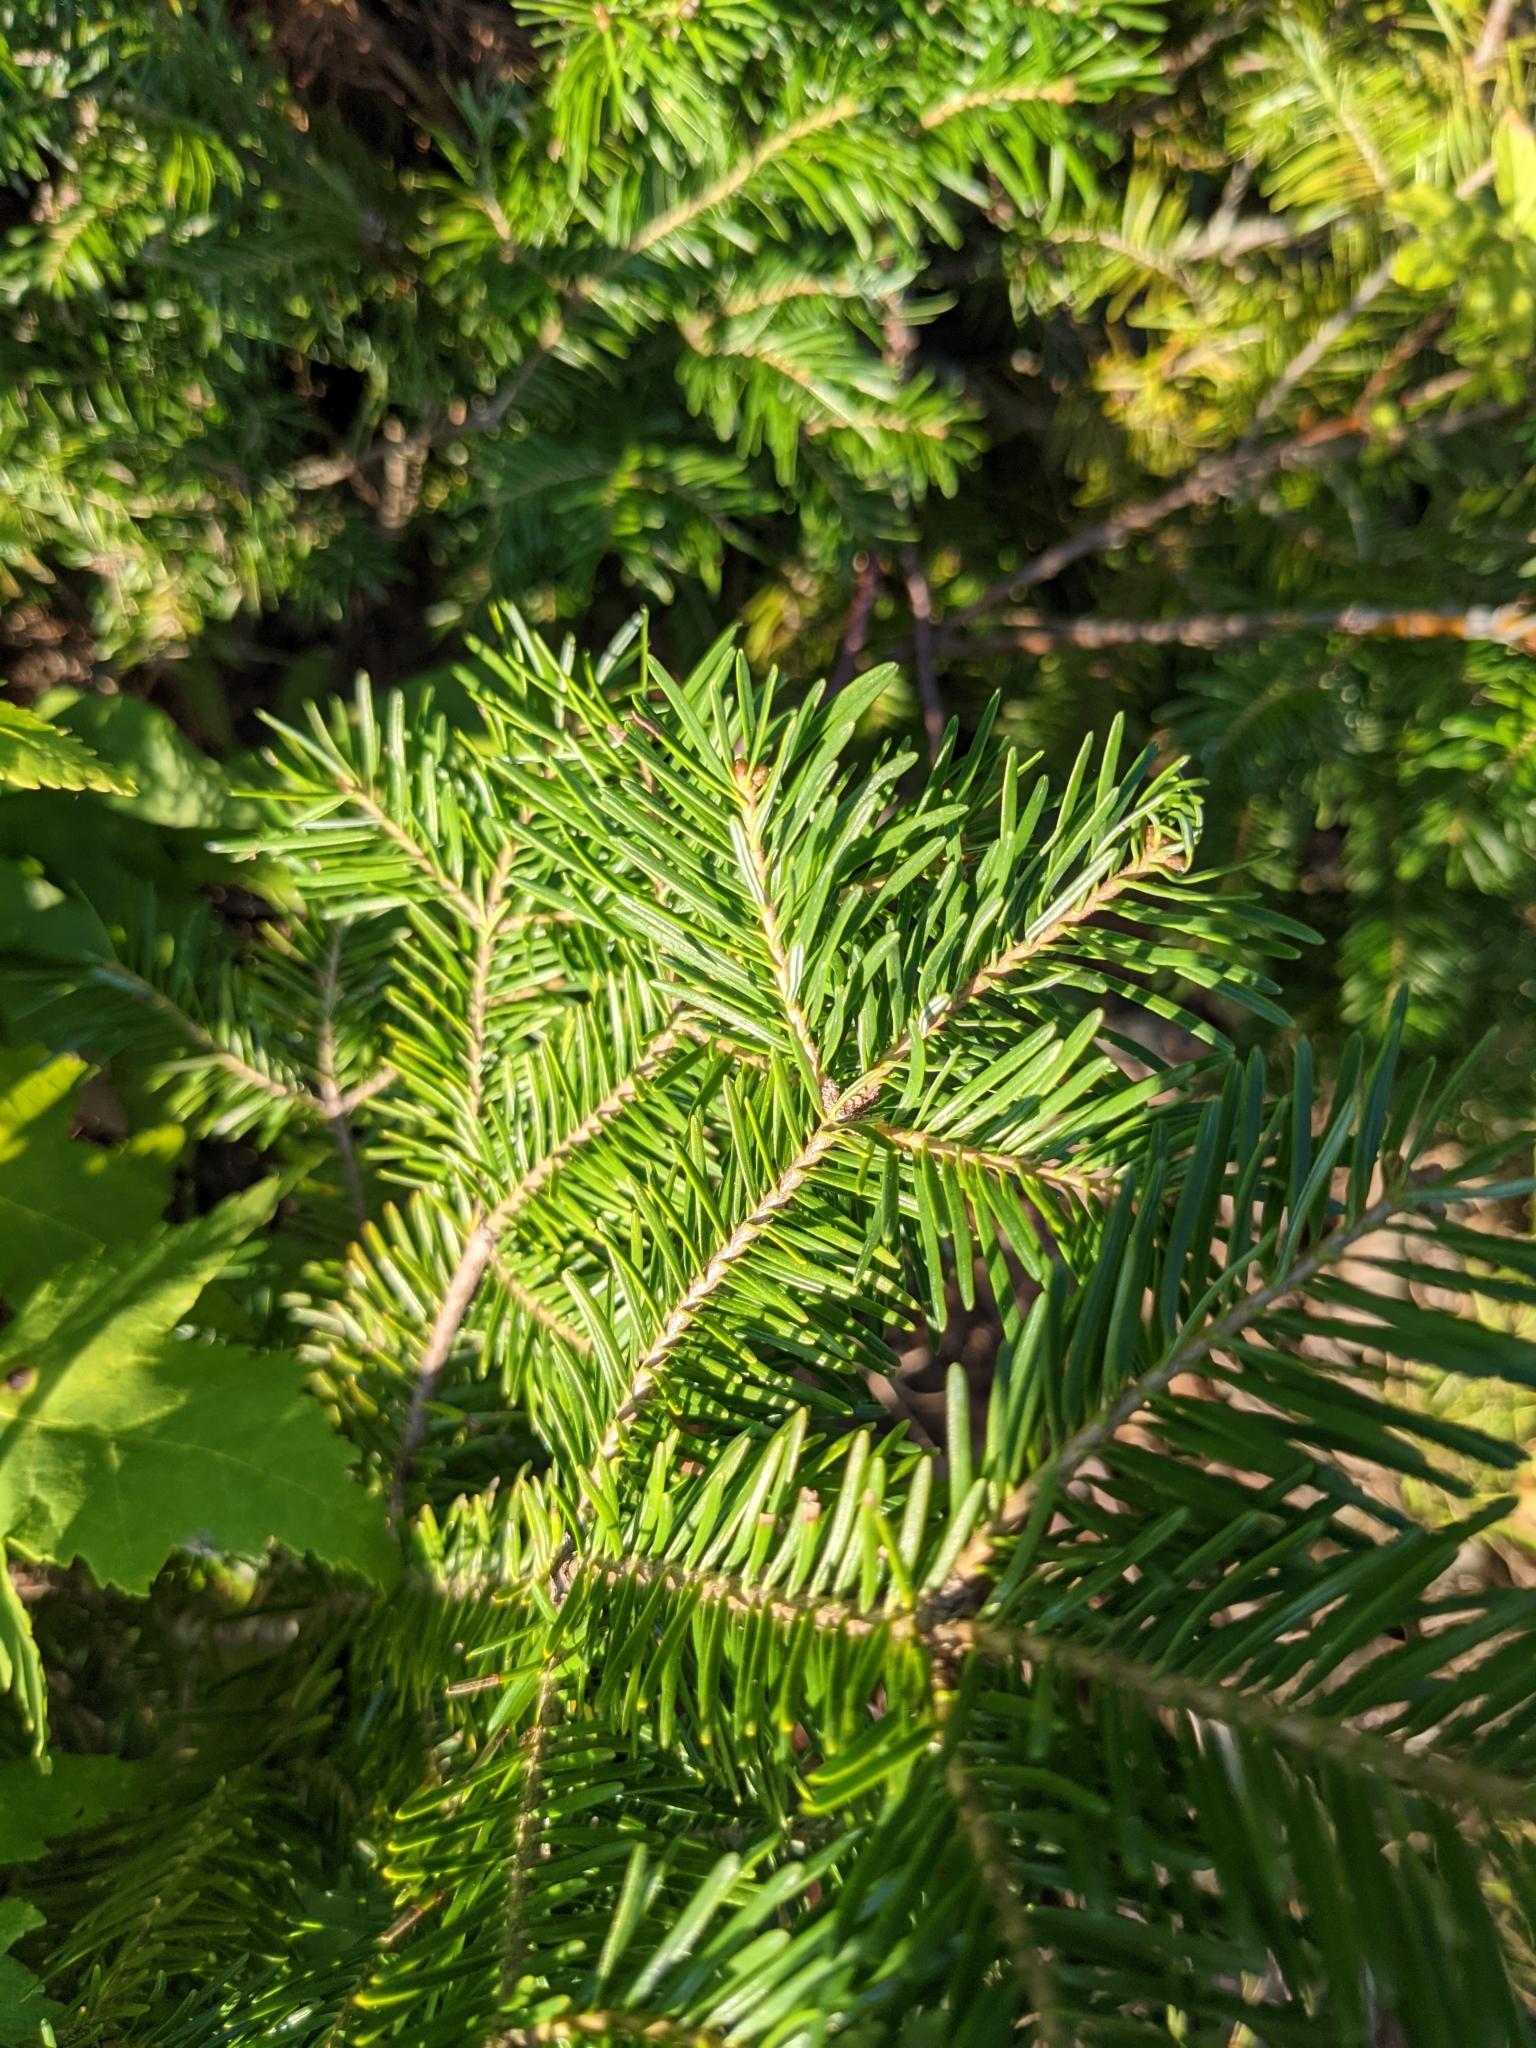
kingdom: Plantae
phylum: Tracheophyta
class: Pinopsida
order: Pinales
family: Pinaceae
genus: Abies
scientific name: Abies balsamea
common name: Balsam fir
